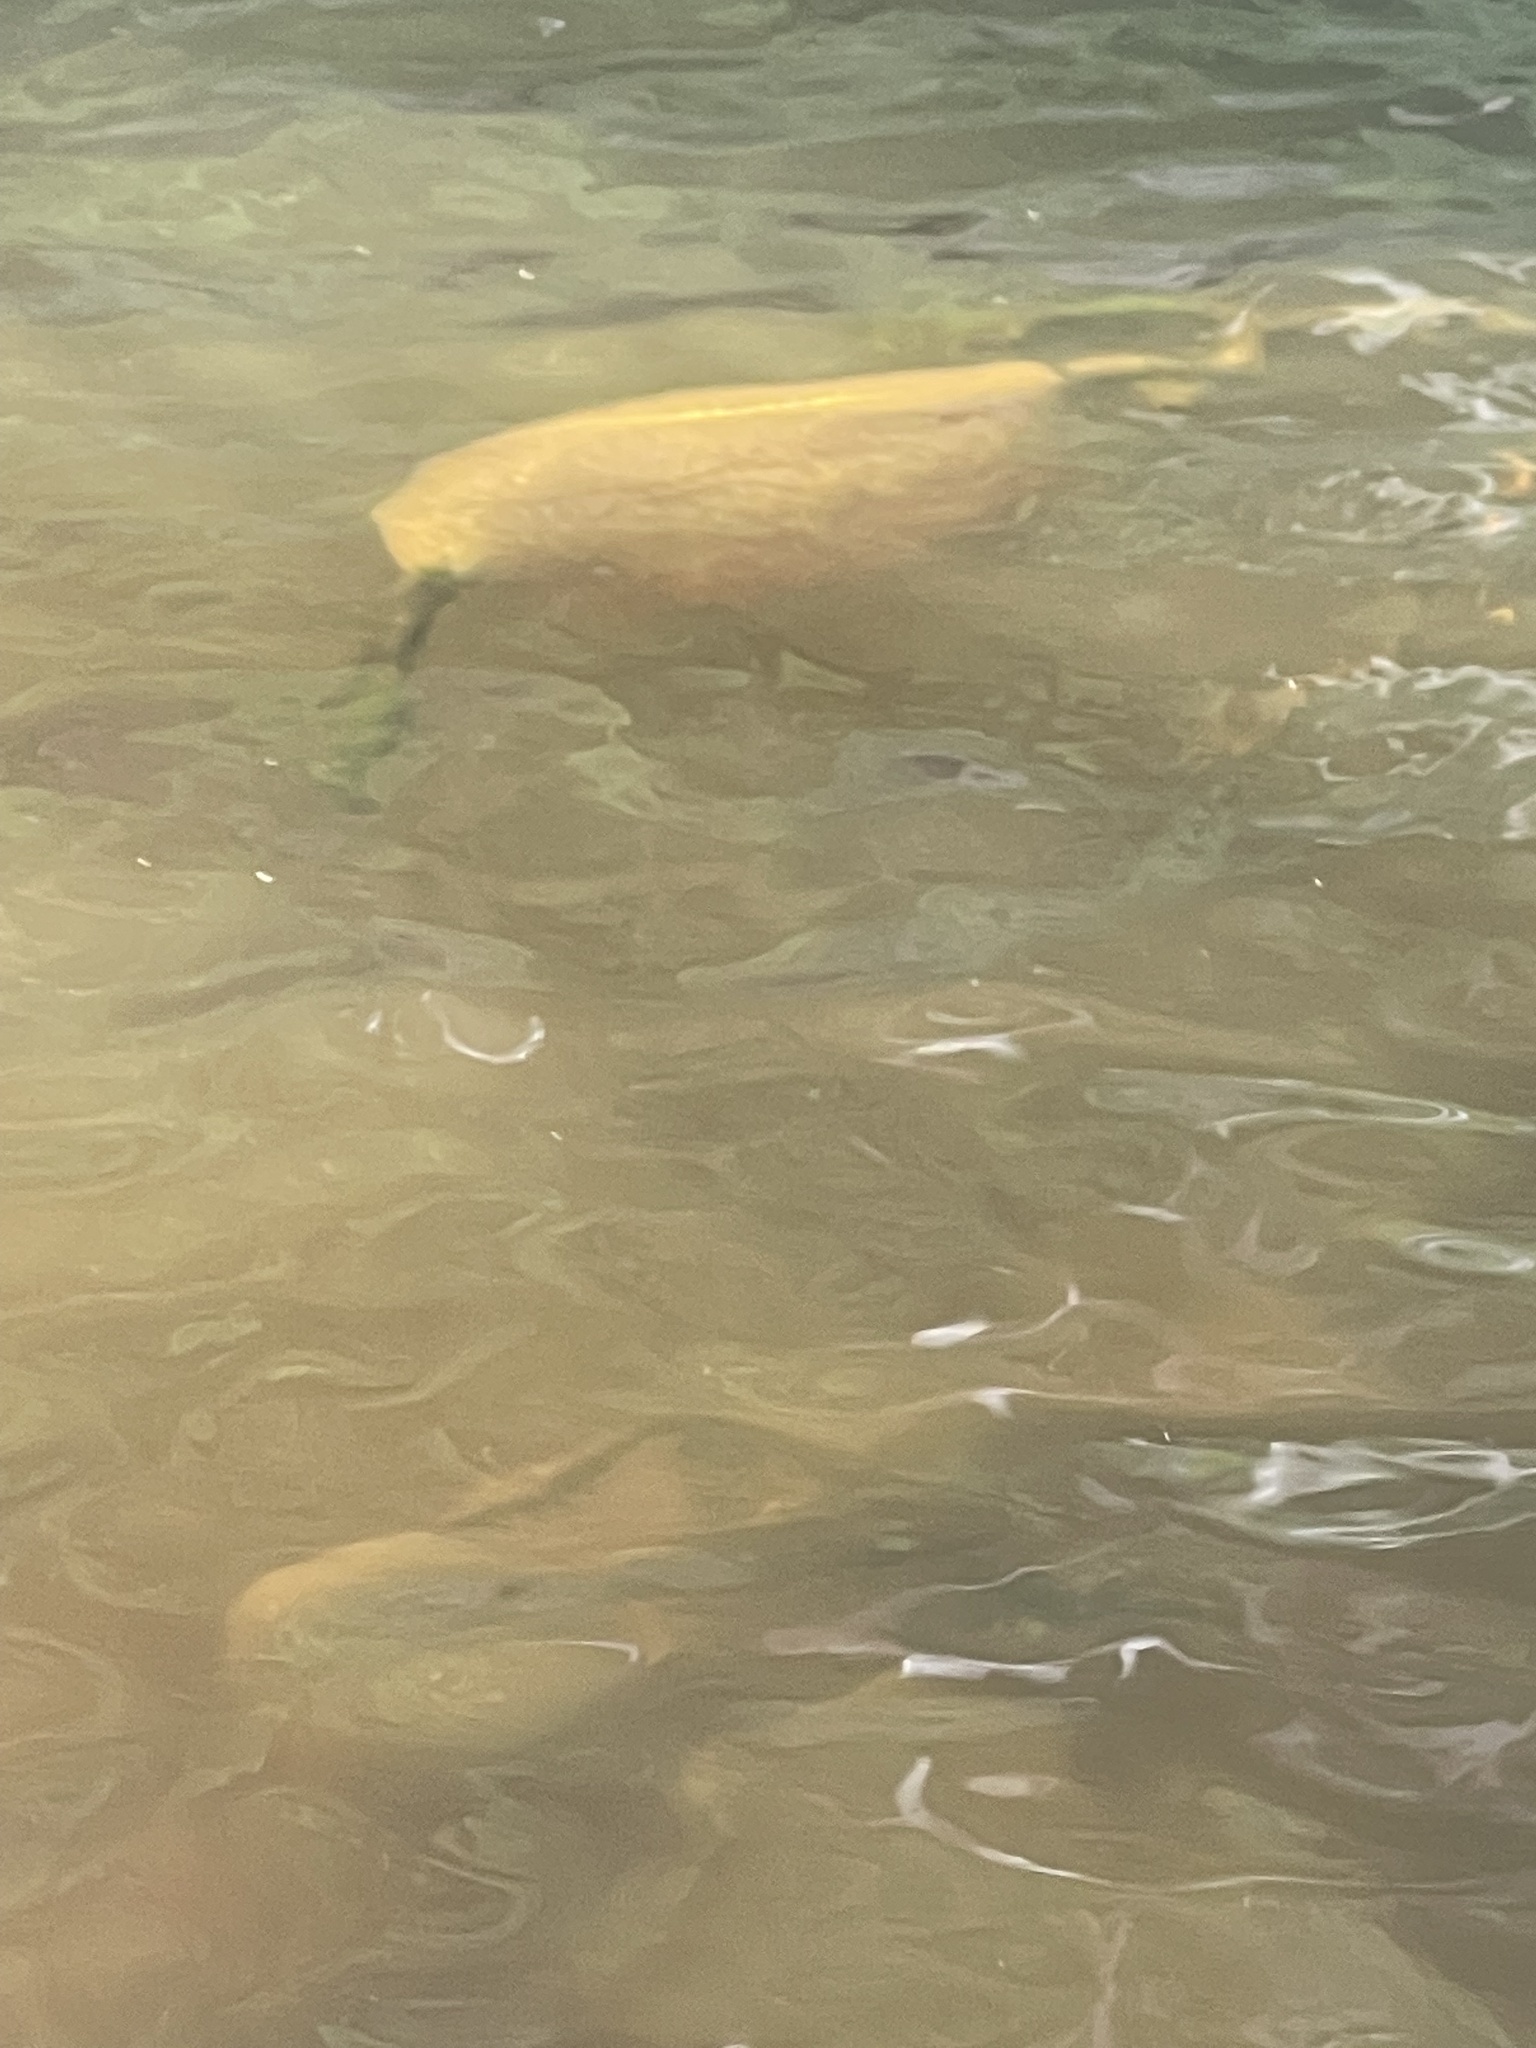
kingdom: Animalia
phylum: Bryozoa
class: Phylactolaemata
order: Plumatellida
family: Pectinatellidae
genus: Pectinatella
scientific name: Pectinatella magnifica
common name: Magnificent bryozoan
